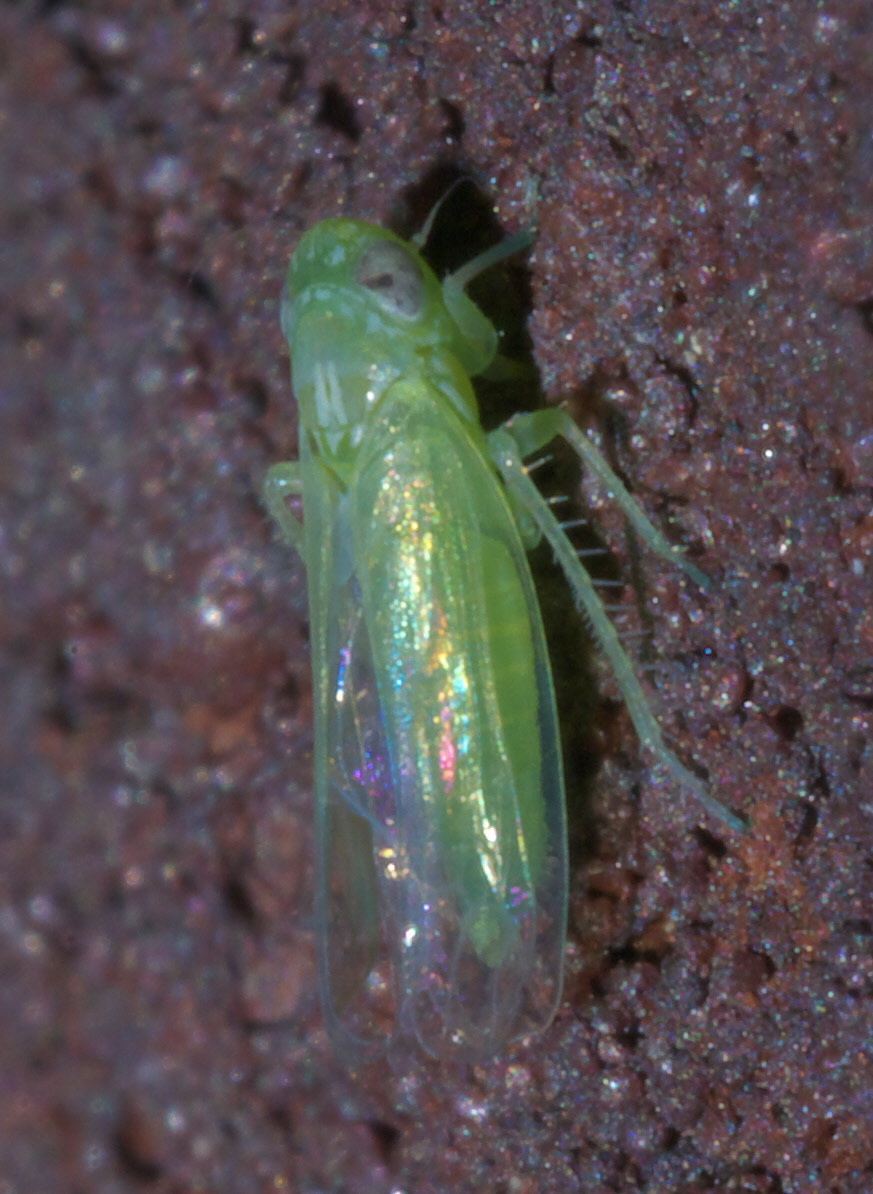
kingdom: Animalia
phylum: Arthropoda
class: Insecta
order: Hemiptera
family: Cicadellidae
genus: Empoasca
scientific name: Empoasca fabae
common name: Potato leafhopper
